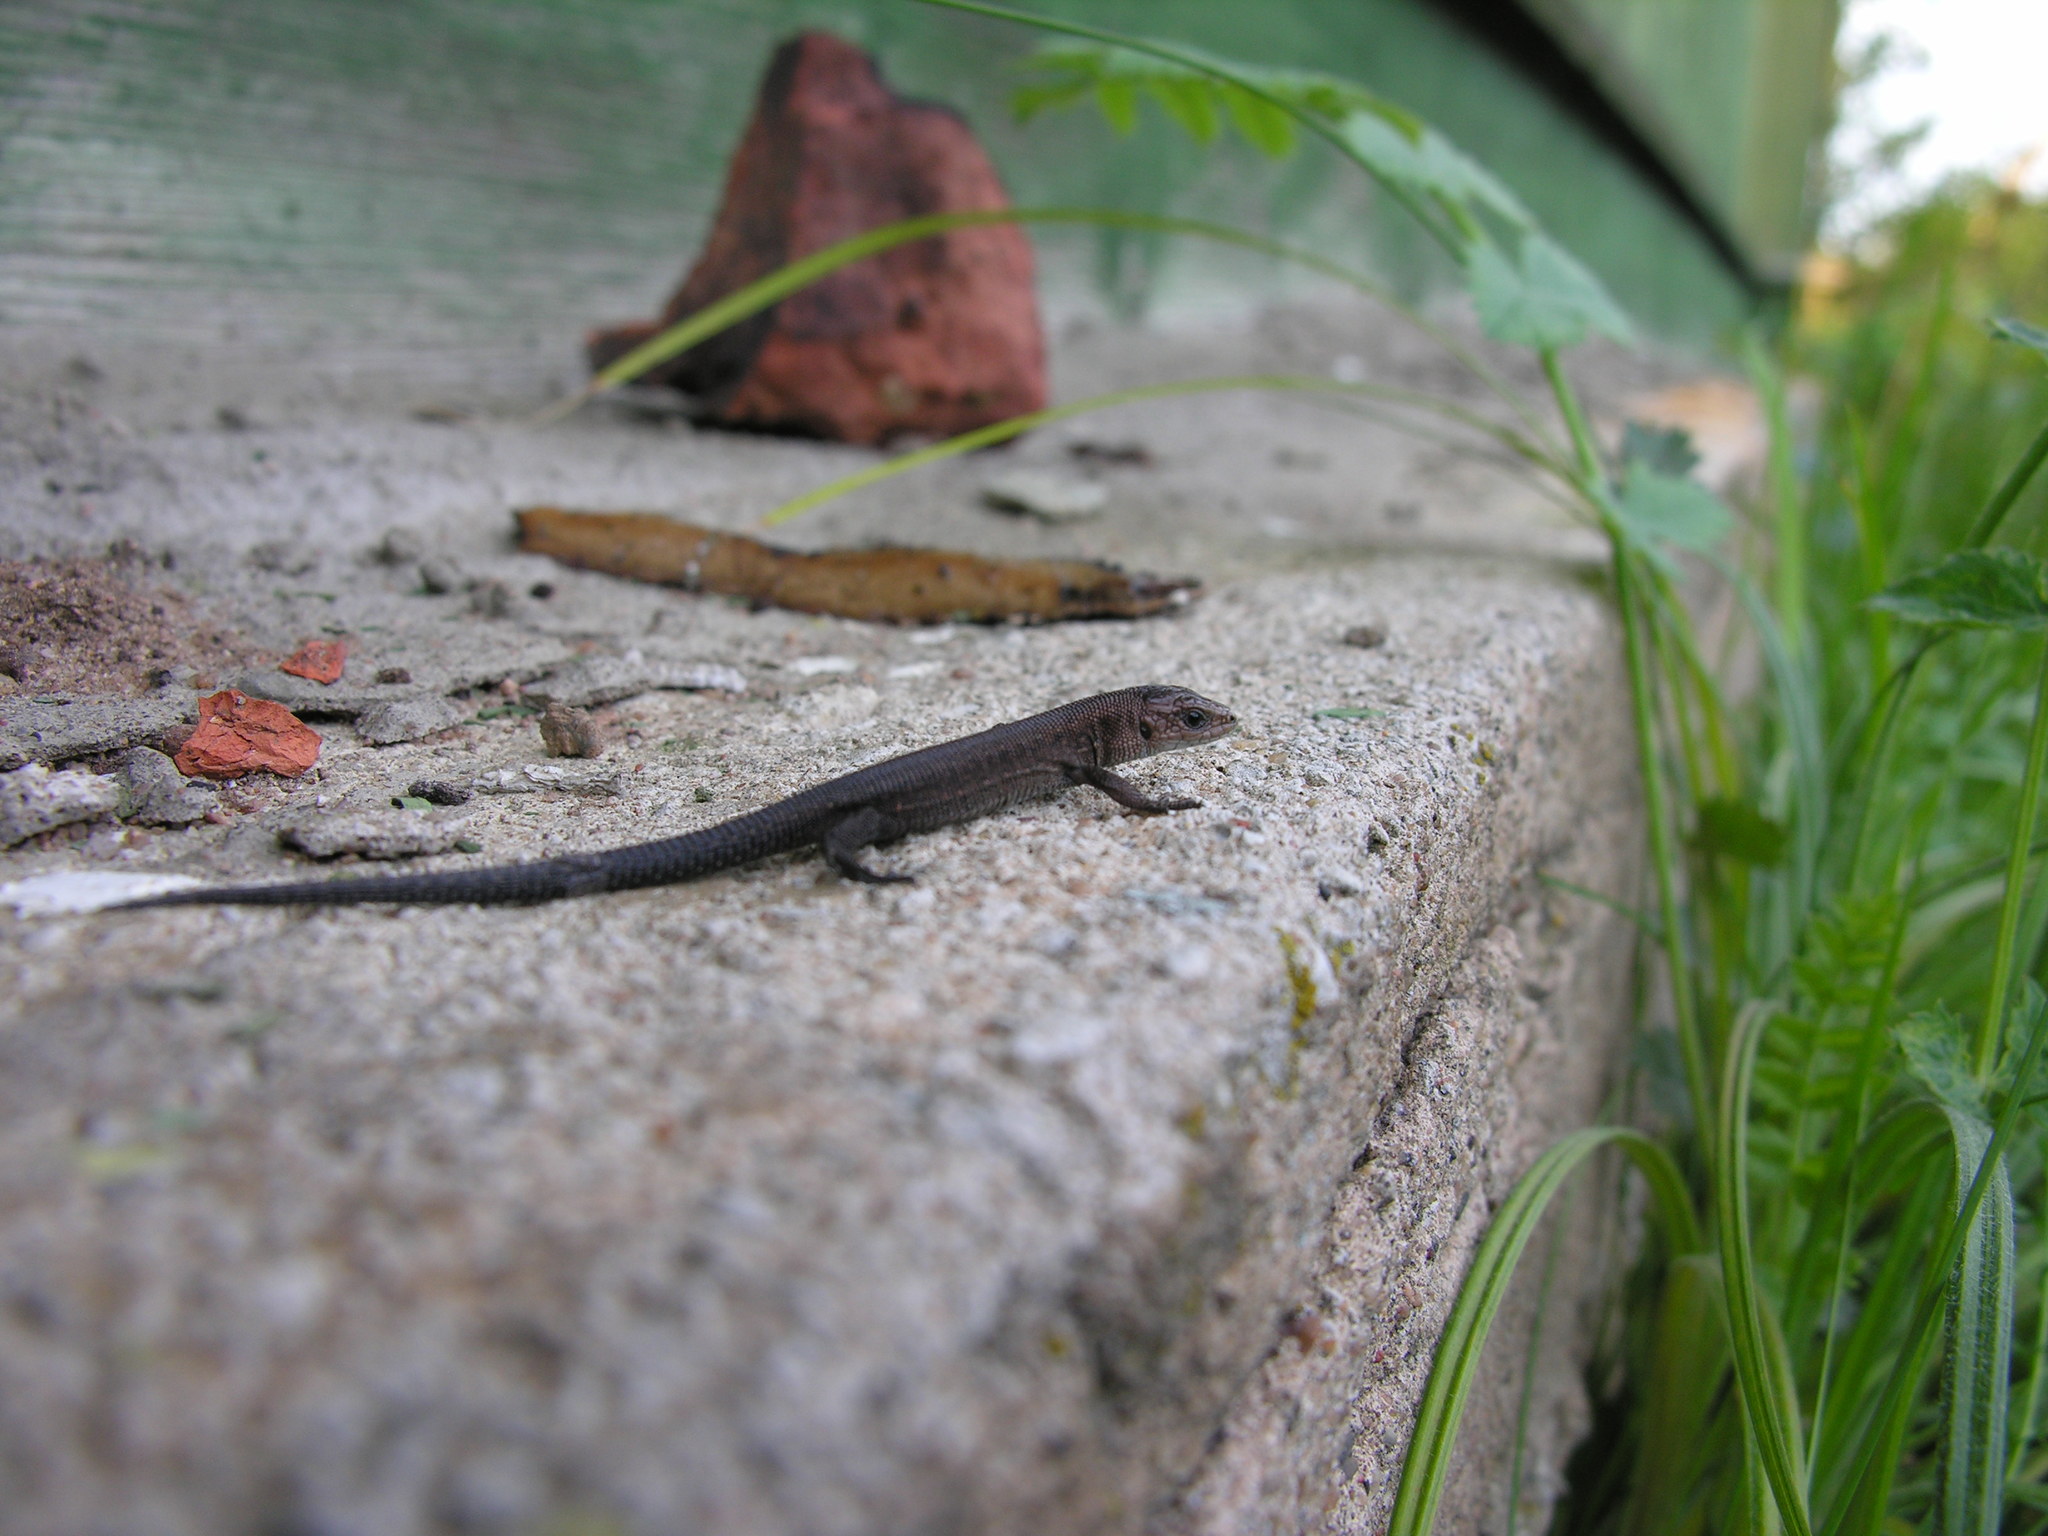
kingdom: Animalia
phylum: Chordata
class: Squamata
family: Lacertidae
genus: Zootoca
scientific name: Zootoca vivipara
